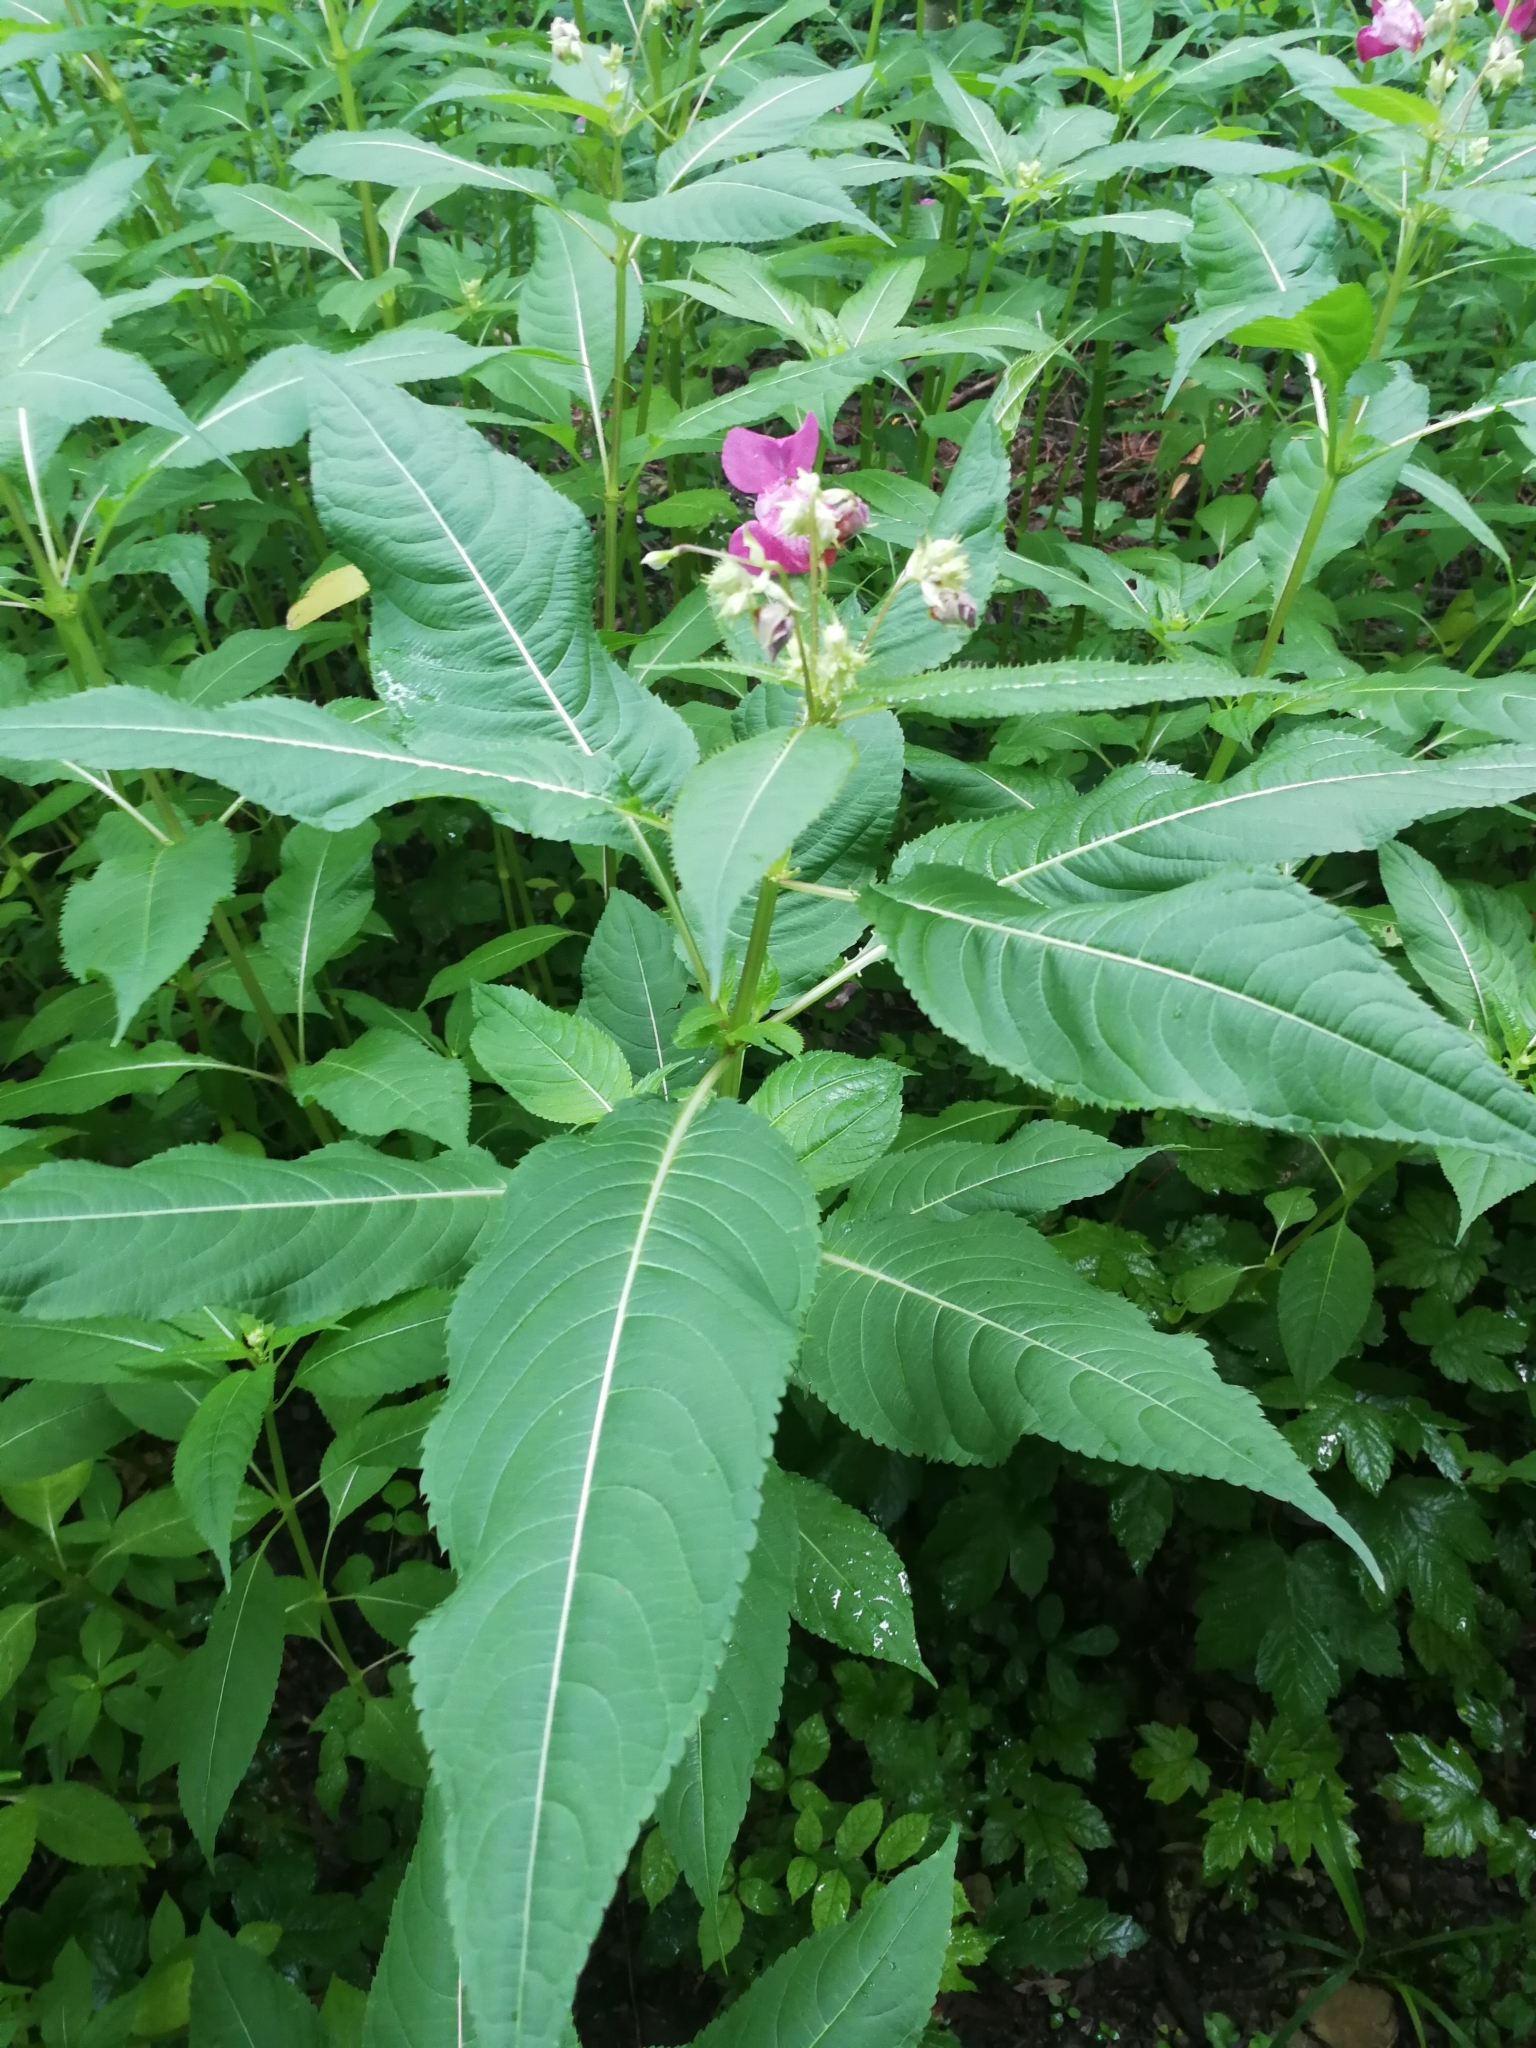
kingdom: Plantae
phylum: Tracheophyta
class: Magnoliopsida
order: Ericales
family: Balsaminaceae
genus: Impatiens
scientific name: Impatiens glandulifera
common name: Himalayan balsam
